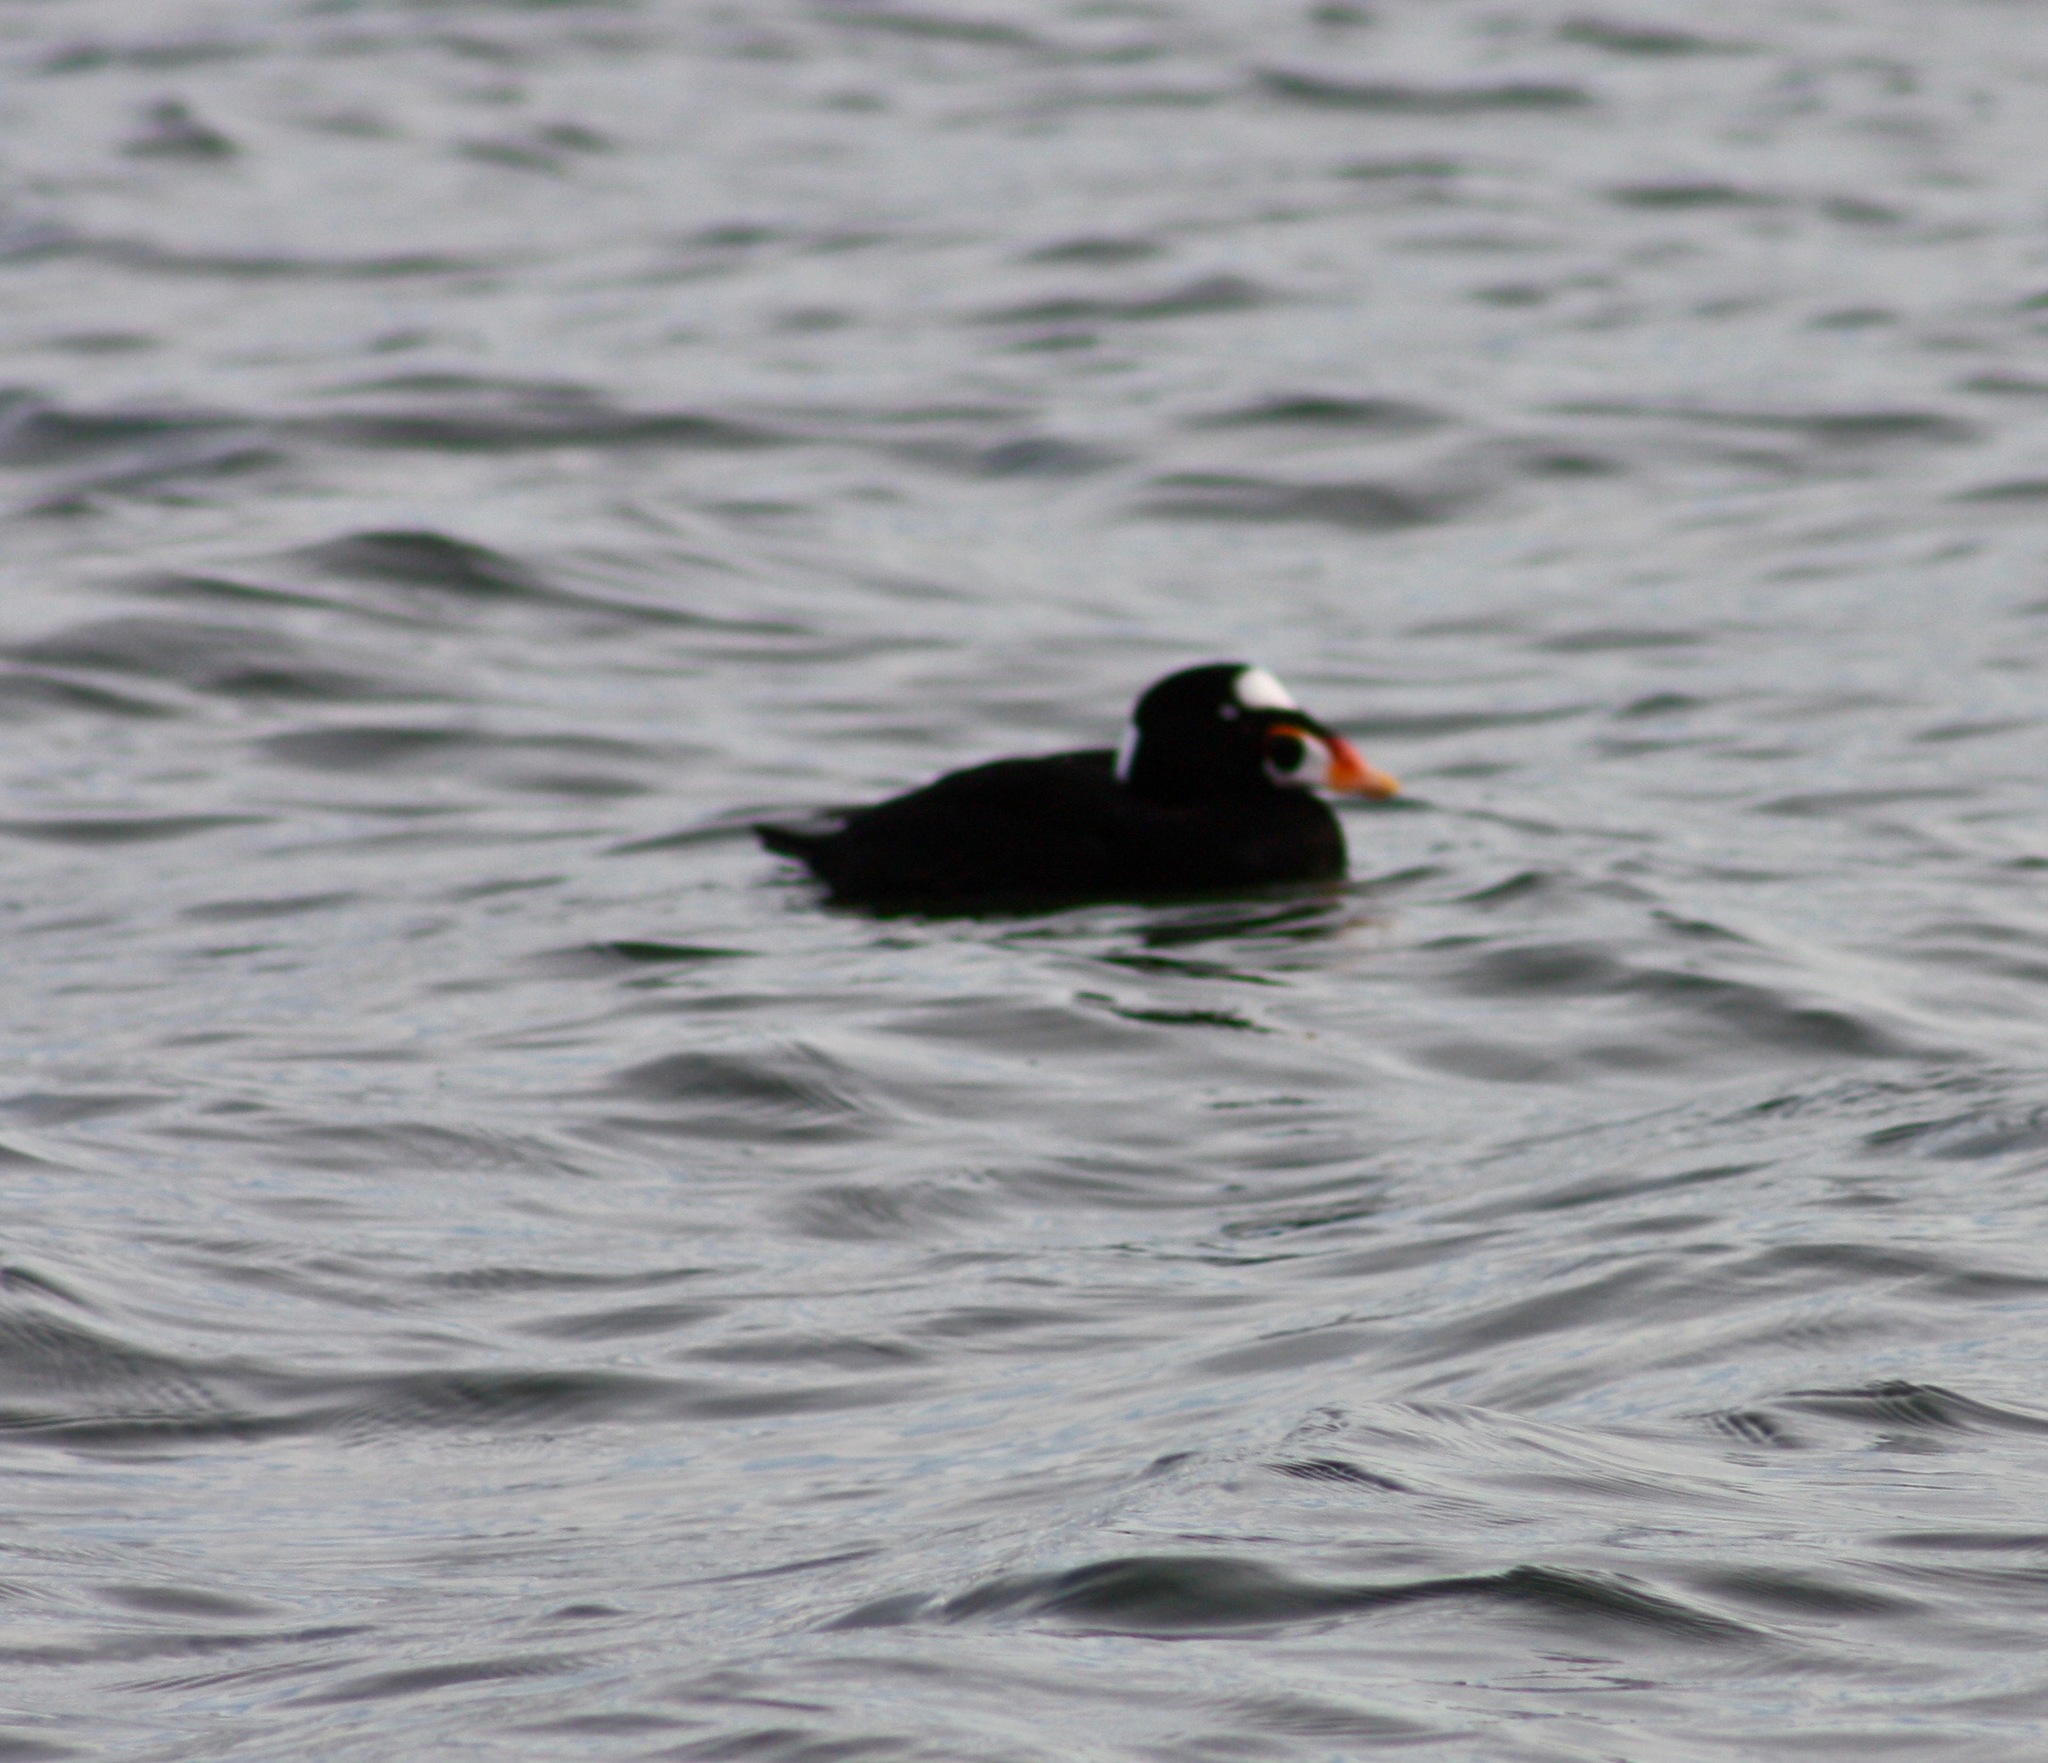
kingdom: Animalia
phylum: Chordata
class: Aves
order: Anseriformes
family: Anatidae
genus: Melanitta
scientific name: Melanitta perspicillata
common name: Surf scoter
